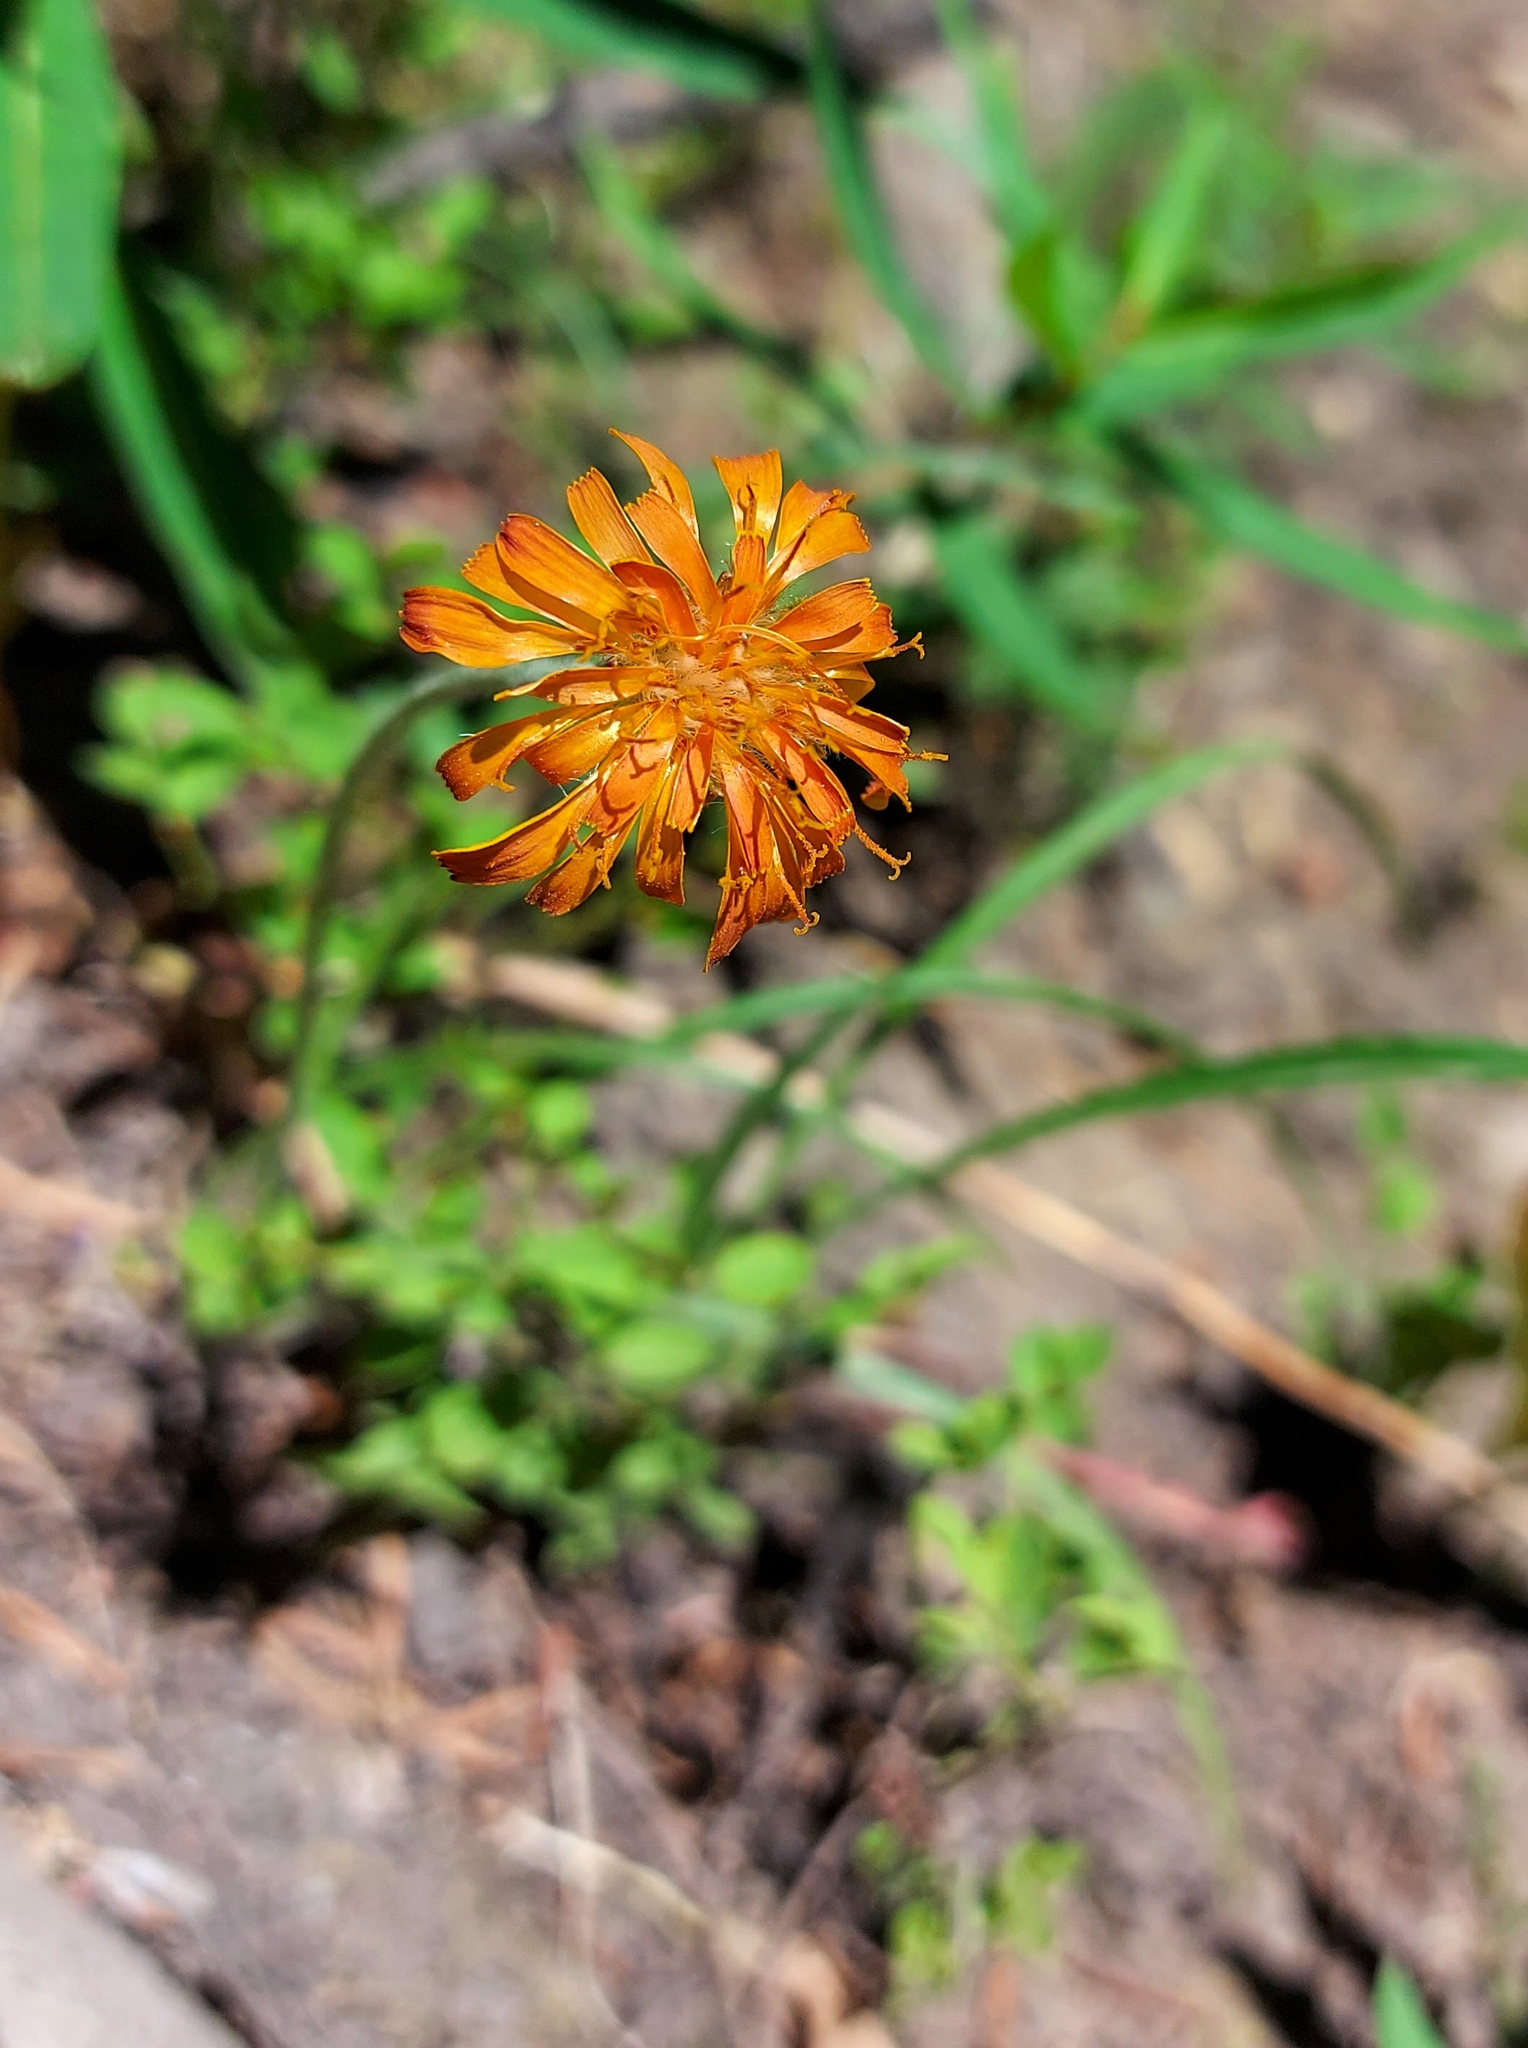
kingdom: Plantae
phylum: Tracheophyta
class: Magnoliopsida
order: Asterales
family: Asteraceae
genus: Agoseris
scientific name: Agoseris aurantiaca
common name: Mountain agoseris
